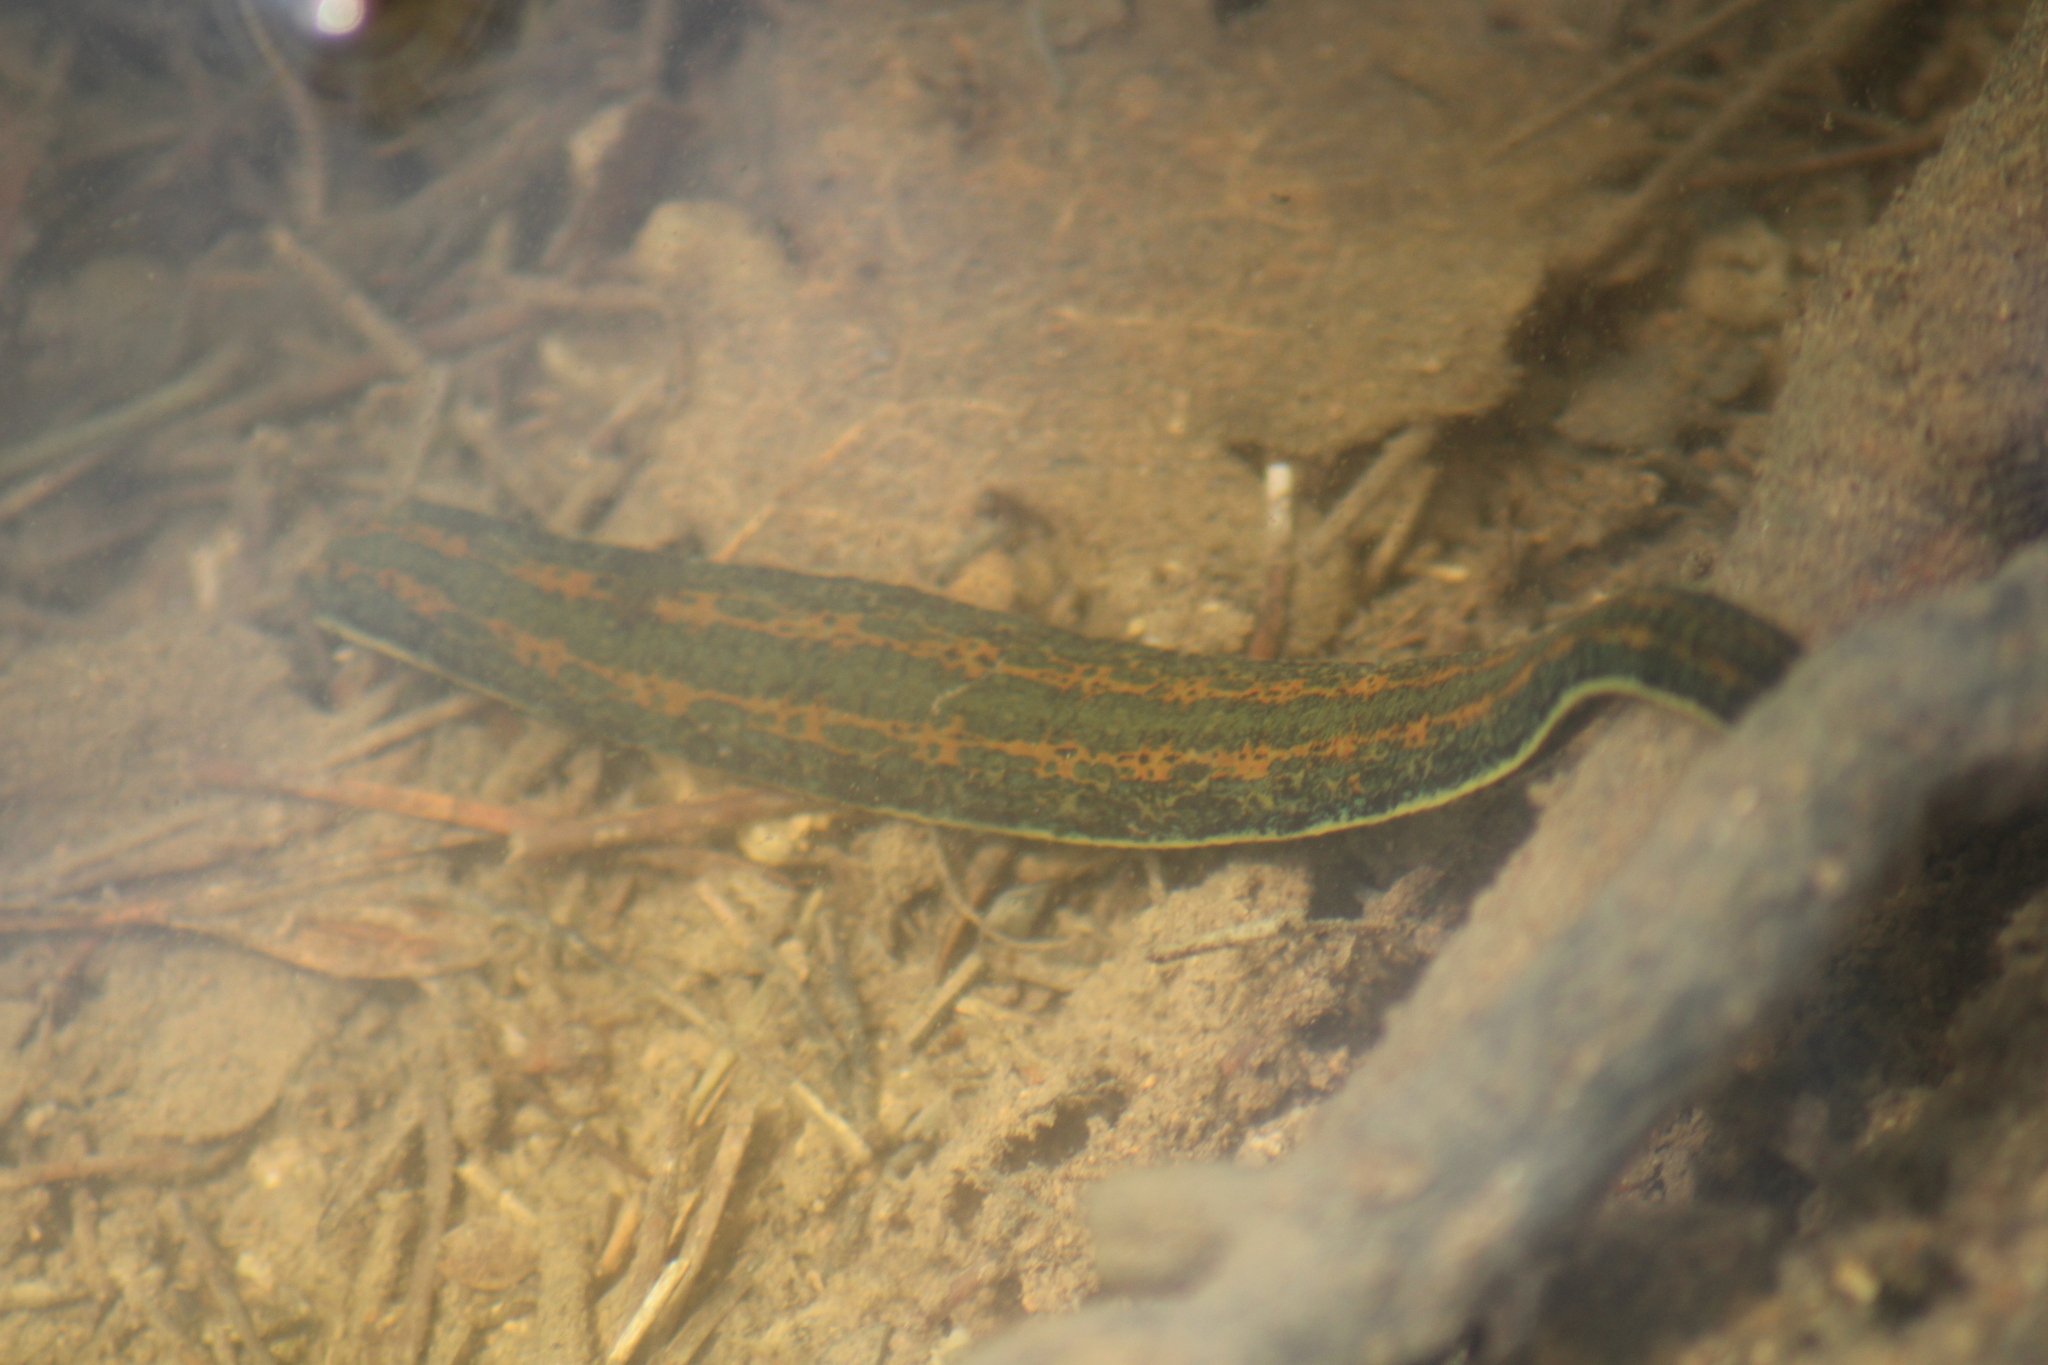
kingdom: Animalia
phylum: Annelida
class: Clitellata
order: Arhynchobdellida
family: Hirudinidae
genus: Hirudo
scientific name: Hirudo verbana
